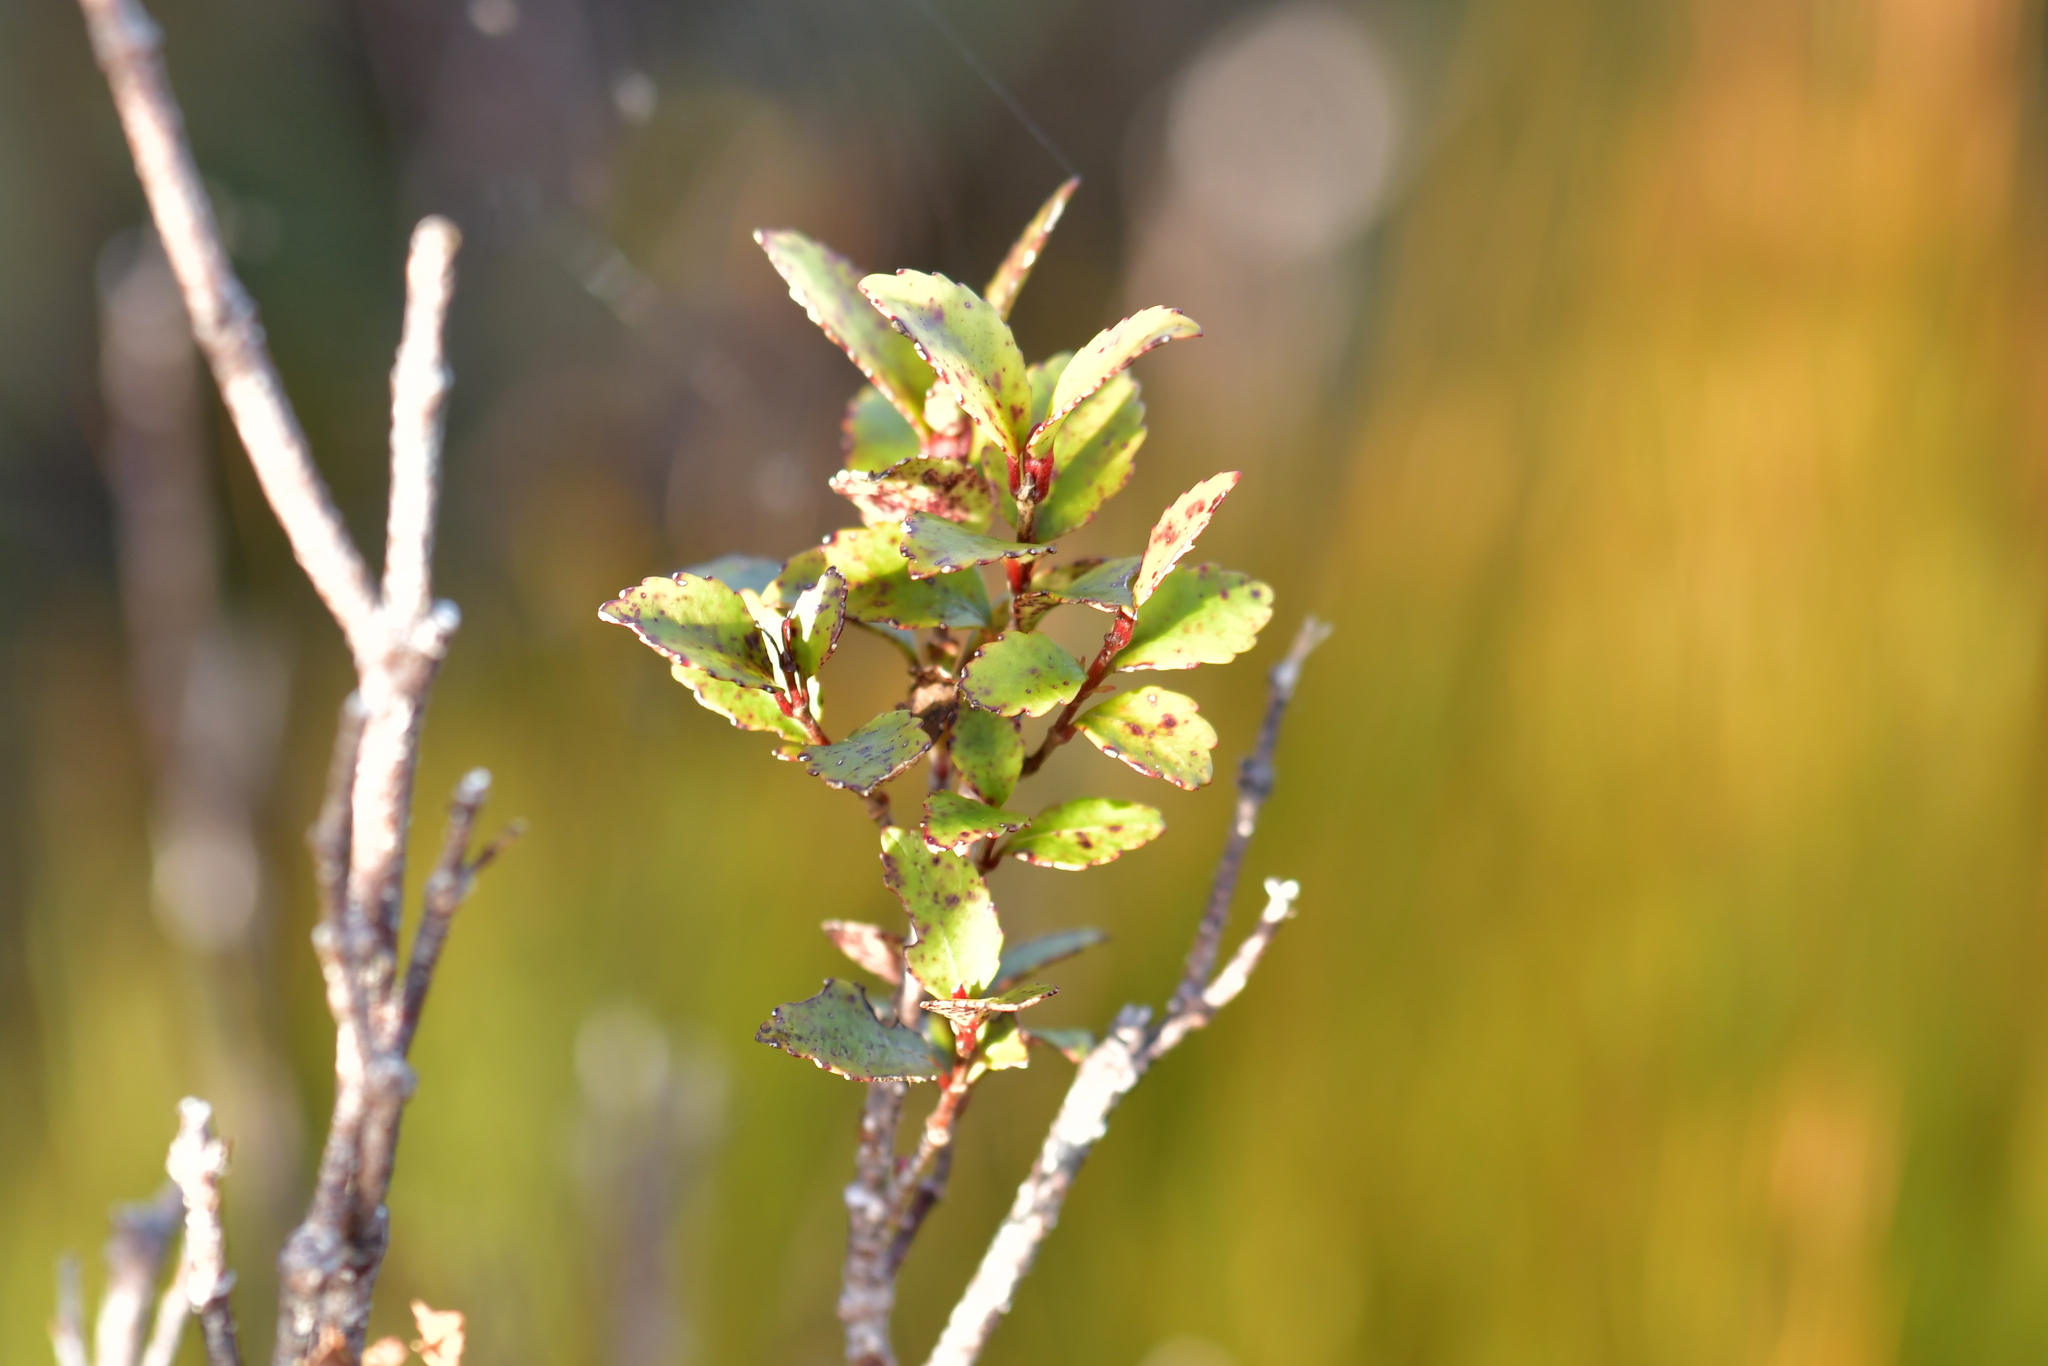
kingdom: Plantae
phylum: Tracheophyta
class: Magnoliopsida
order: Oxalidales
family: Cunoniaceae
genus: Pterophylla
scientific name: Pterophylla racemosa
